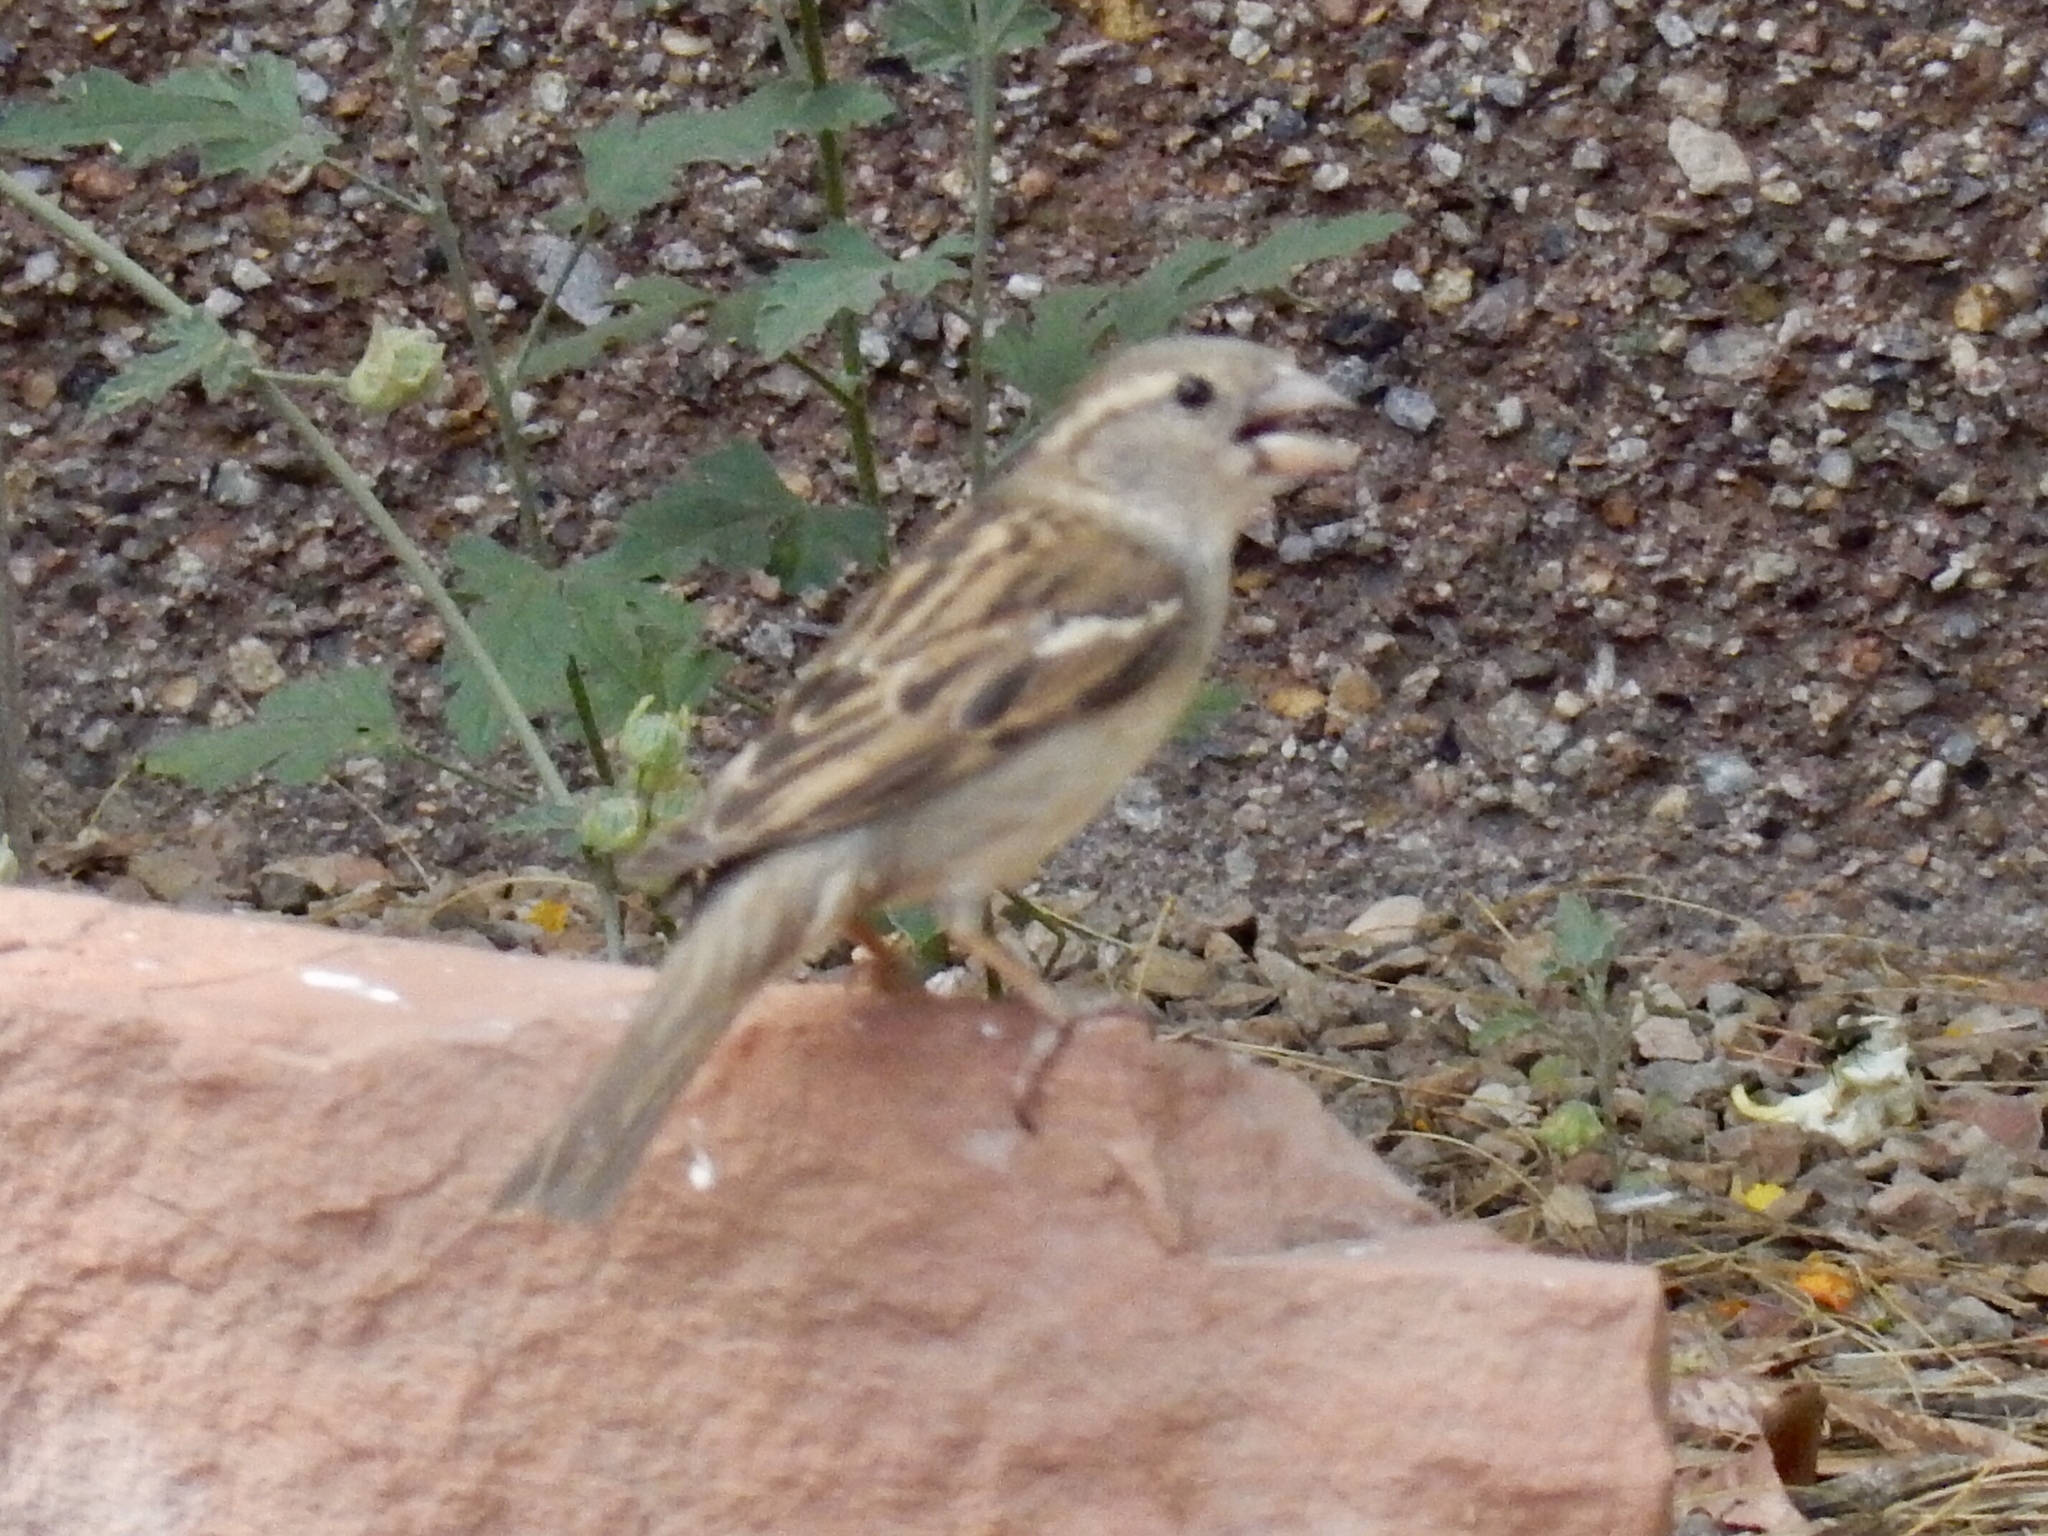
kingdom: Animalia
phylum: Chordata
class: Aves
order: Passeriformes
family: Passeridae
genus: Passer
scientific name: Passer domesticus
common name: House sparrow
